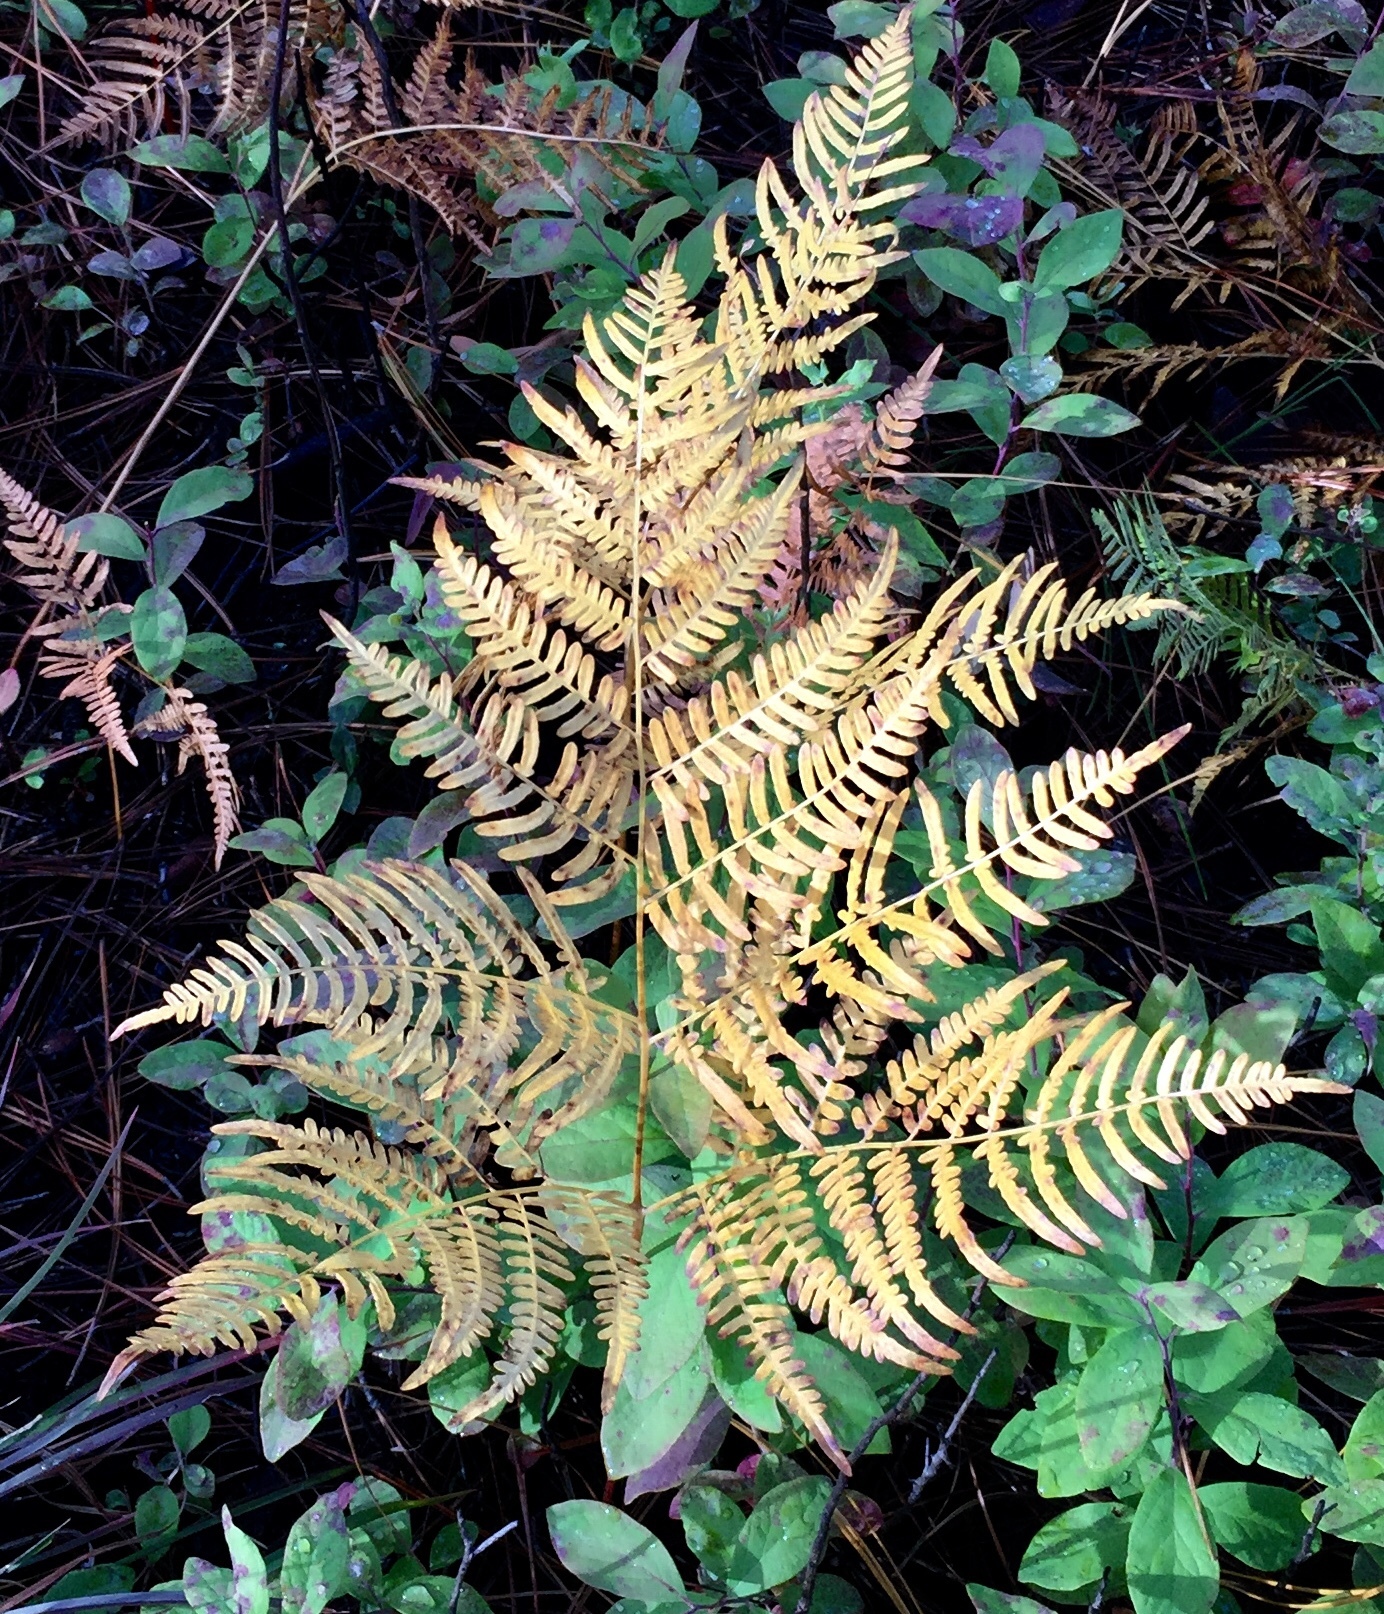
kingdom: Plantae
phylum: Tracheophyta
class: Polypodiopsida
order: Polypodiales
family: Dennstaedtiaceae
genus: Pteridium
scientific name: Pteridium aquilinum
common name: Bracken
